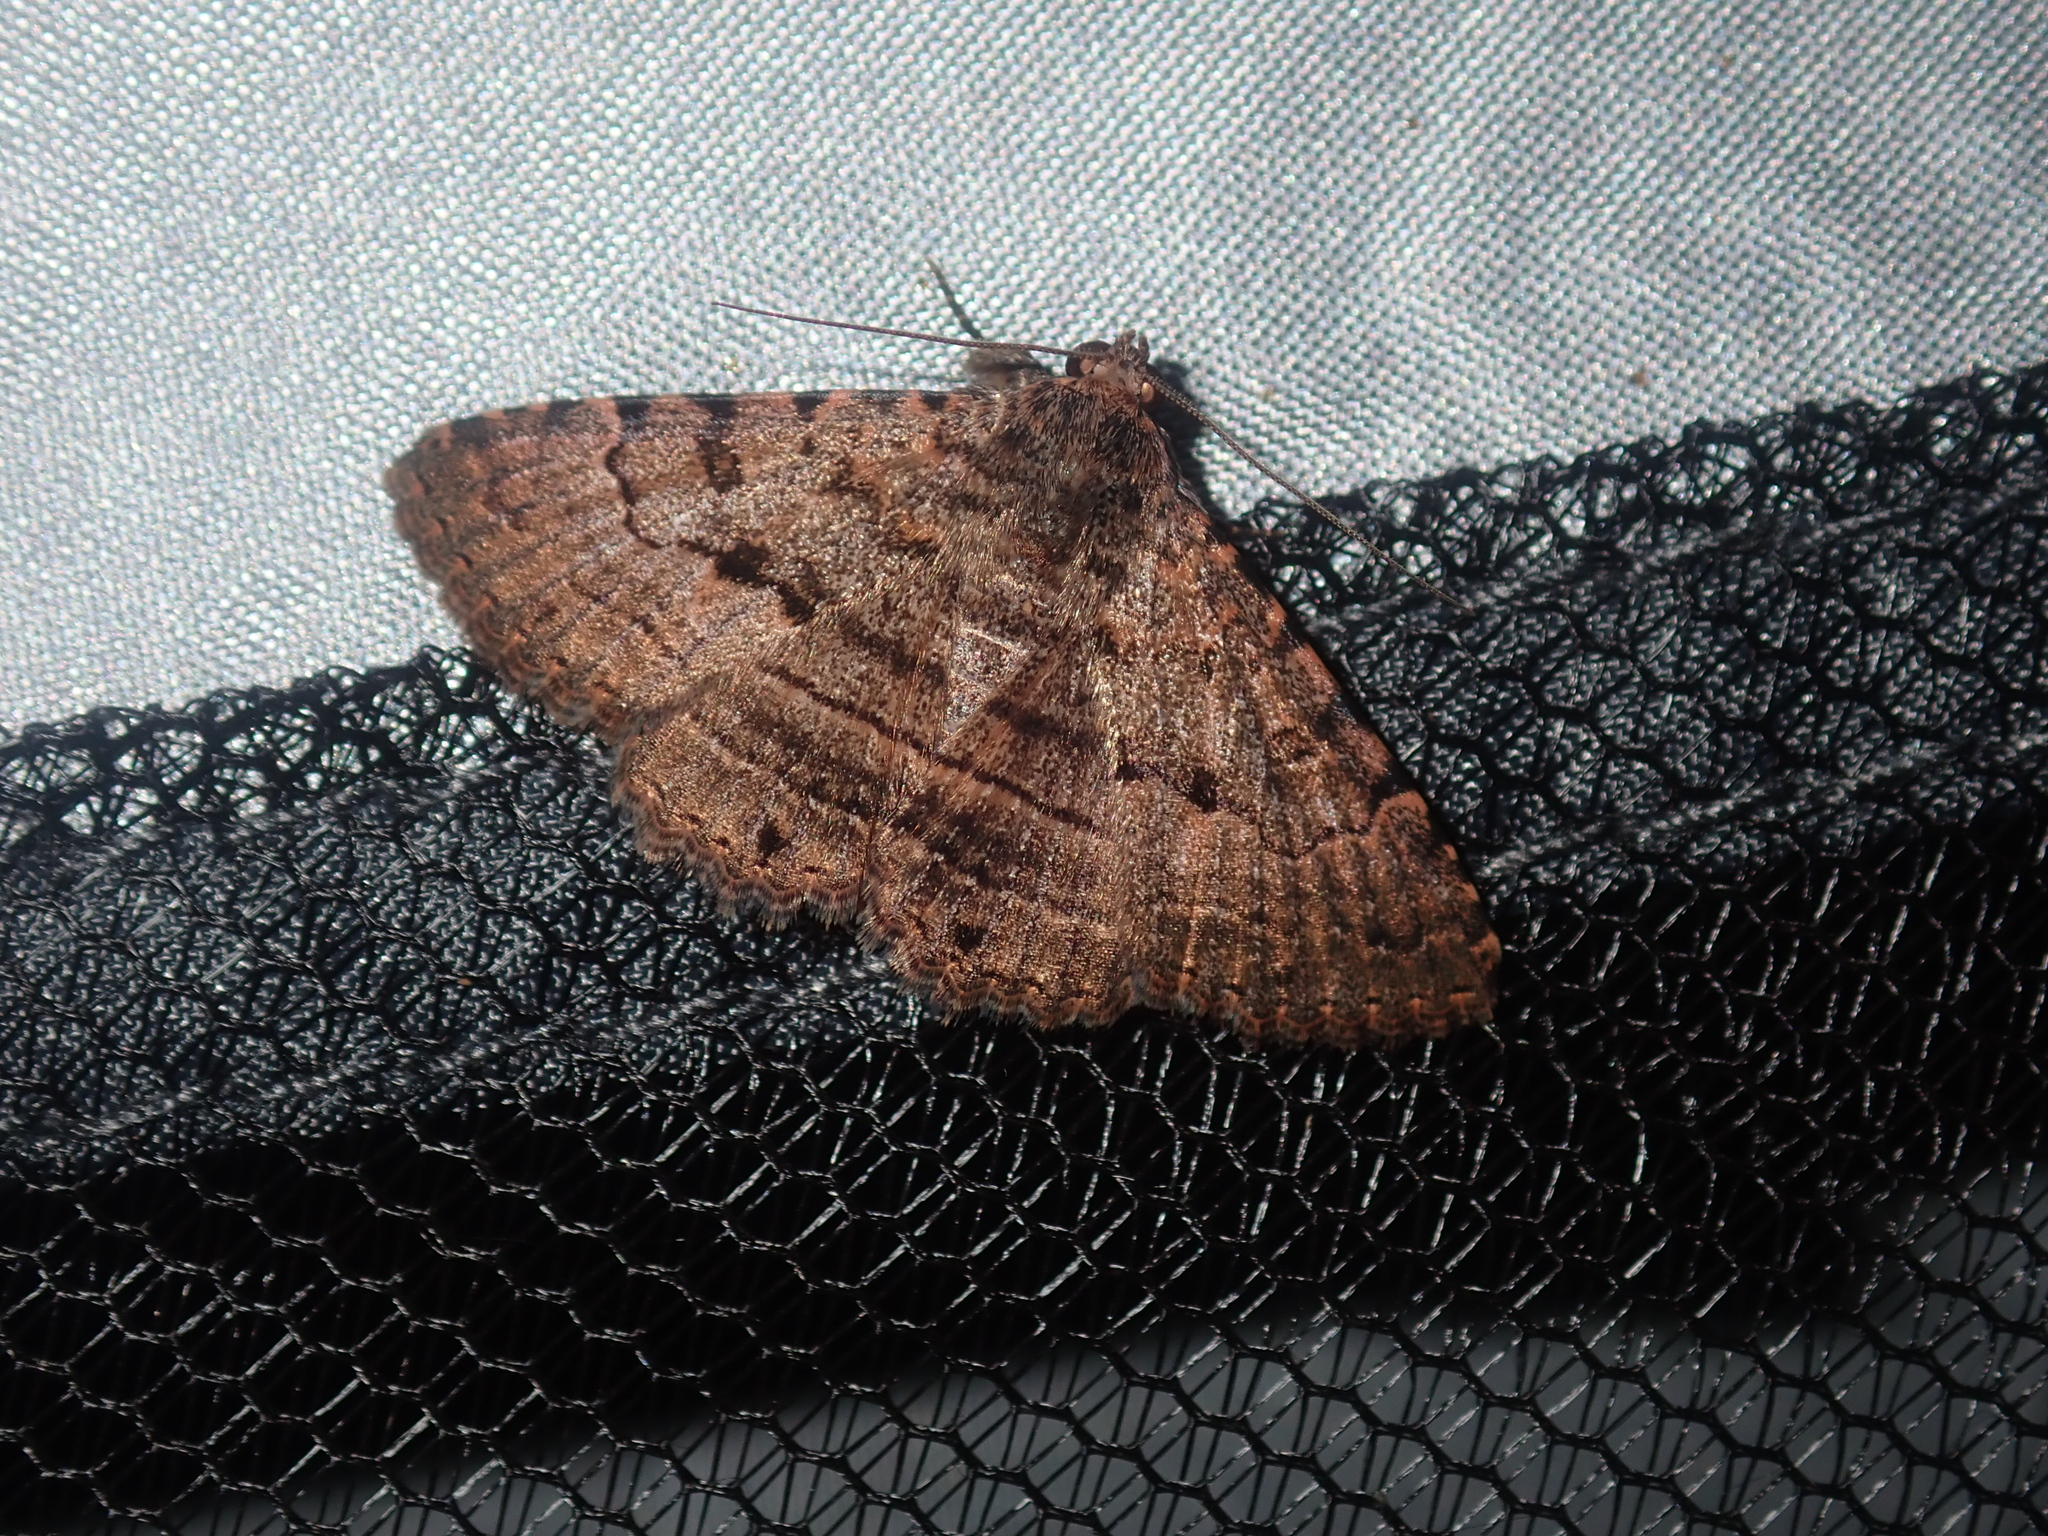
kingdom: Animalia
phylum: Arthropoda
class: Insecta
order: Lepidoptera
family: Erebidae
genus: Diatenes
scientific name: Diatenes igneipicta
